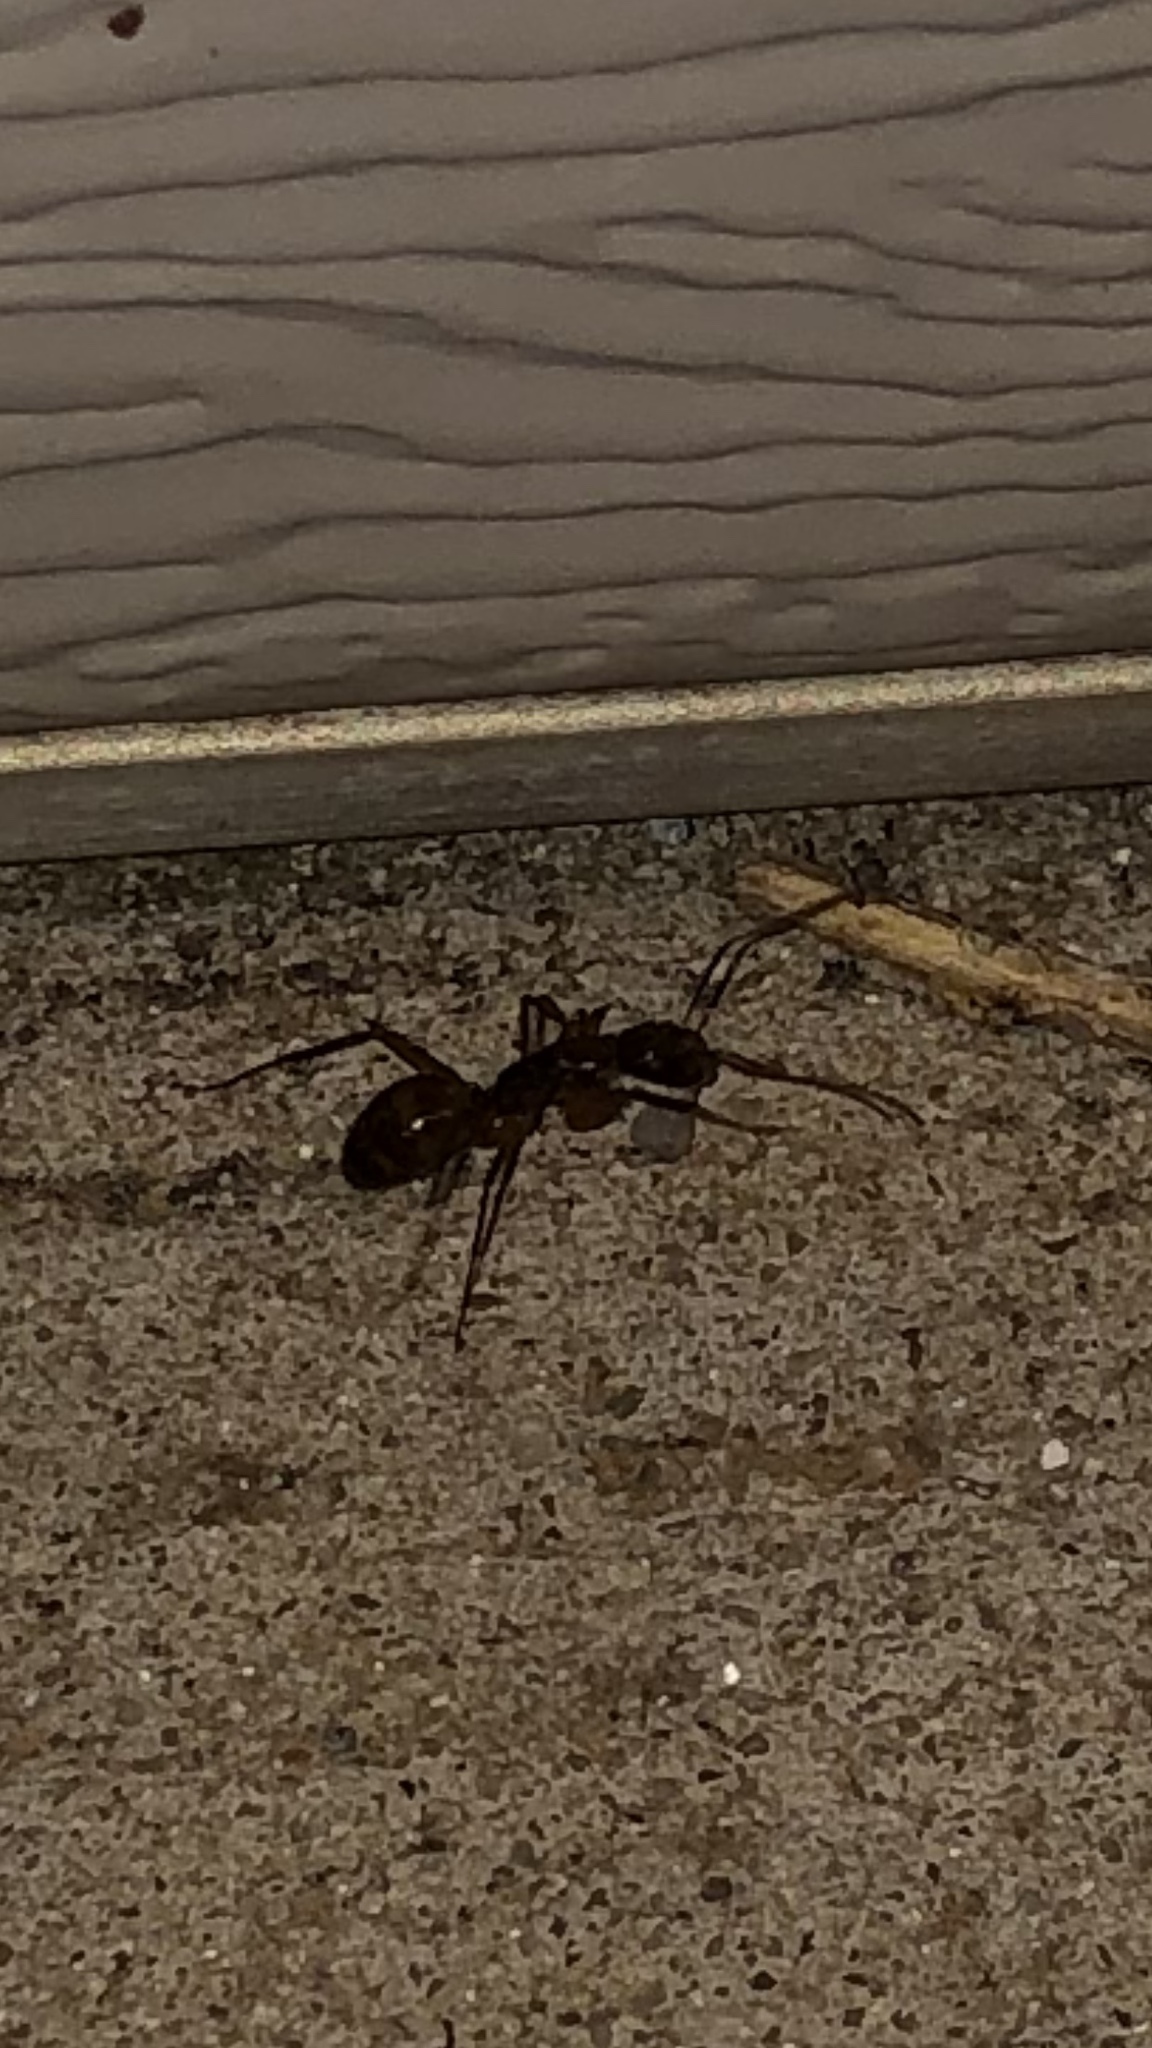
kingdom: Animalia
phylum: Arthropoda
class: Insecta
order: Hymenoptera
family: Formicidae
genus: Camponotus
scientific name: Camponotus americanus
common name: American carpenter ant
